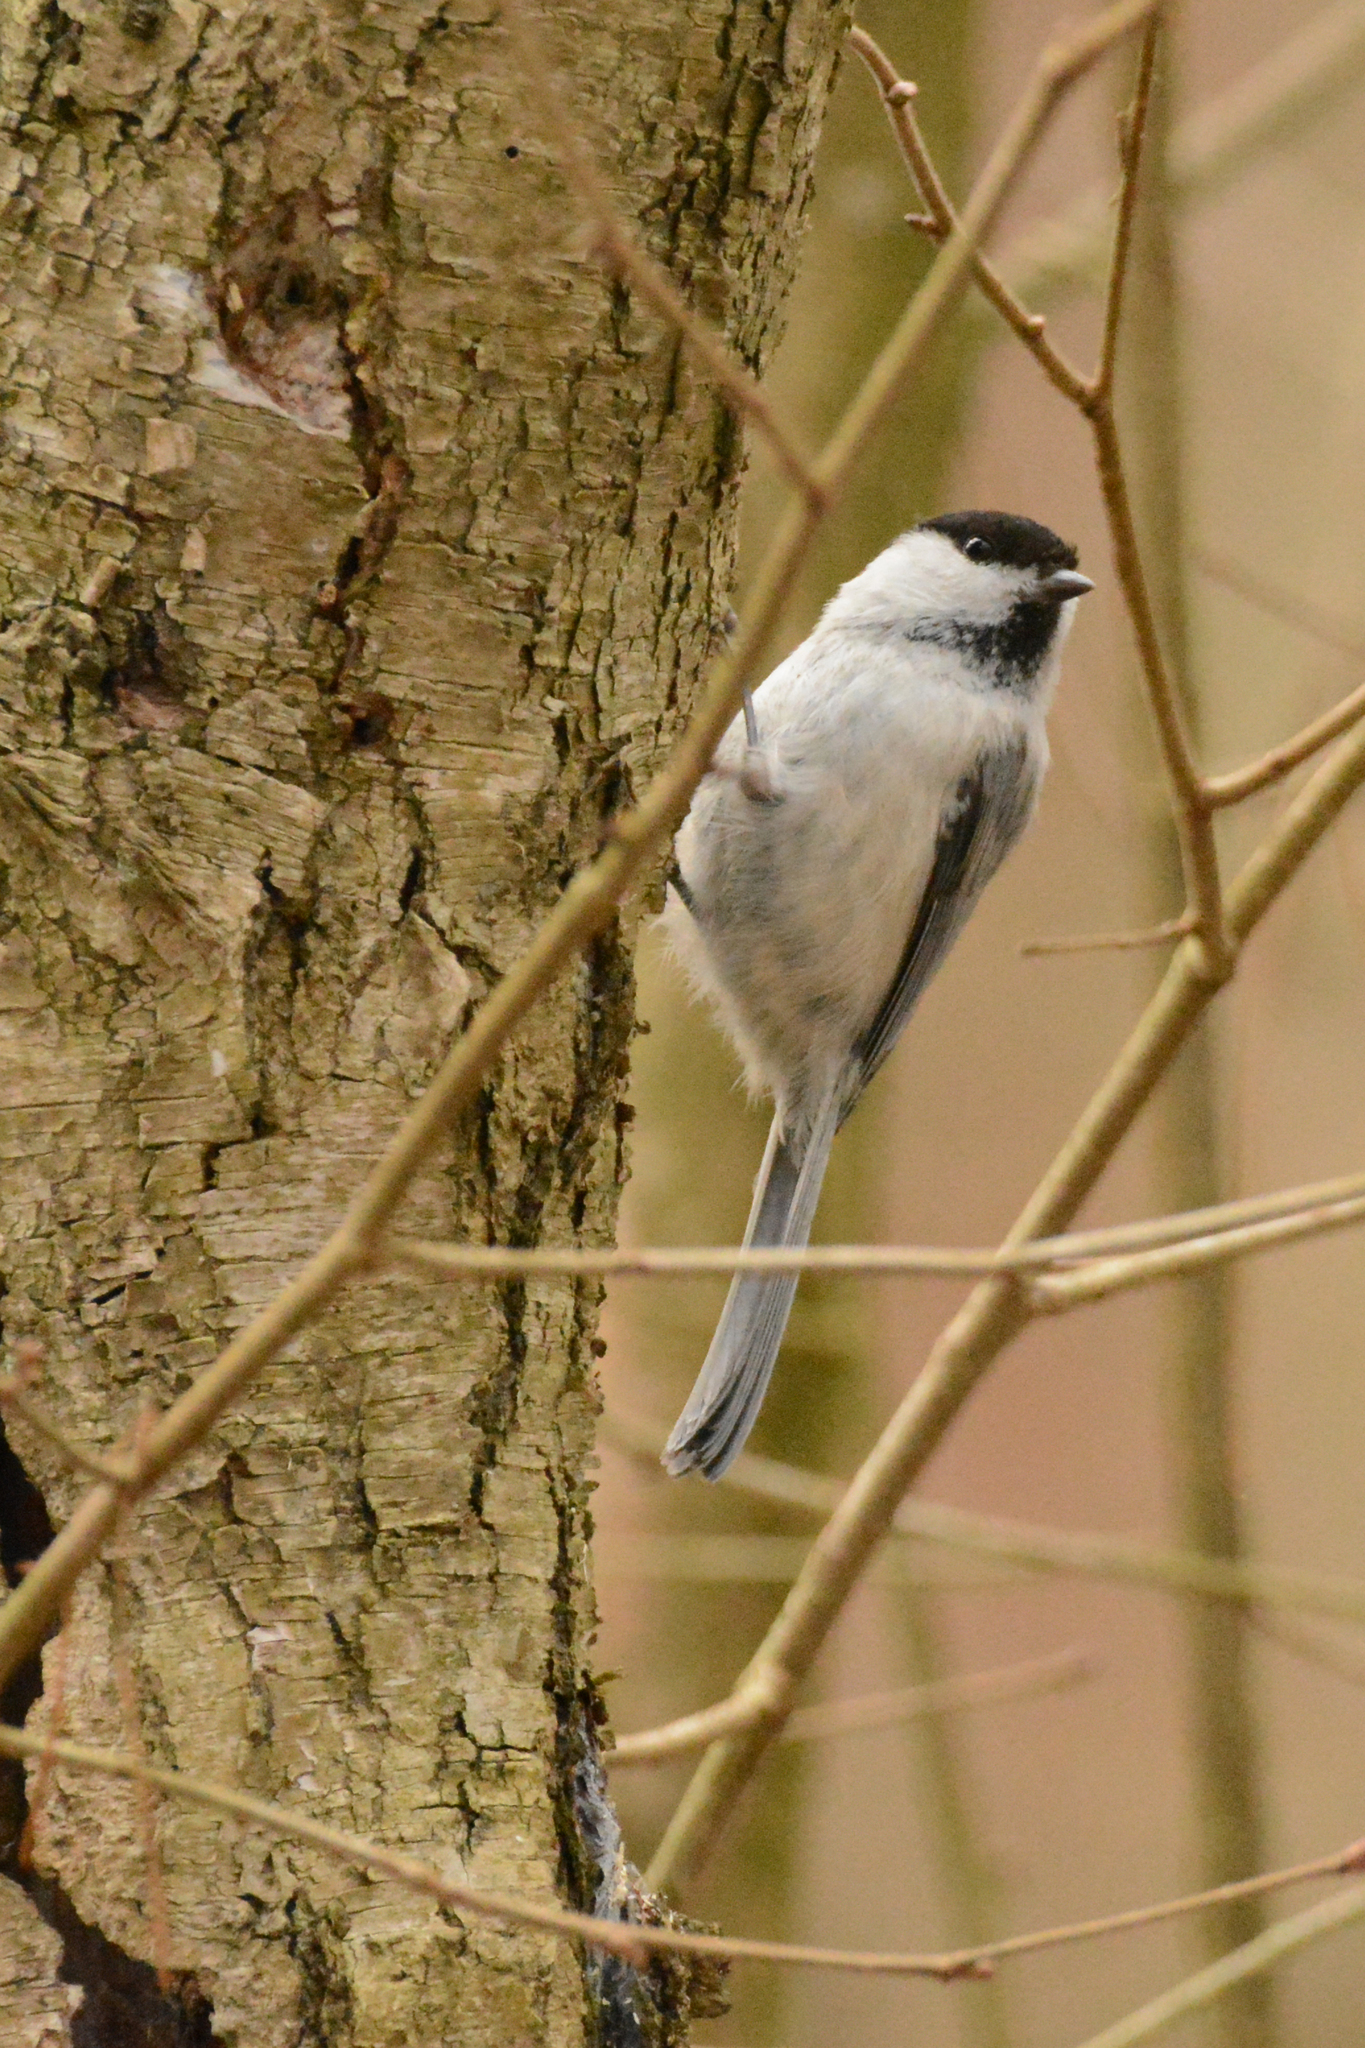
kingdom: Animalia
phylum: Chordata
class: Aves
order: Passeriformes
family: Paridae
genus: Poecile
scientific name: Poecile montanus
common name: Willow tit
